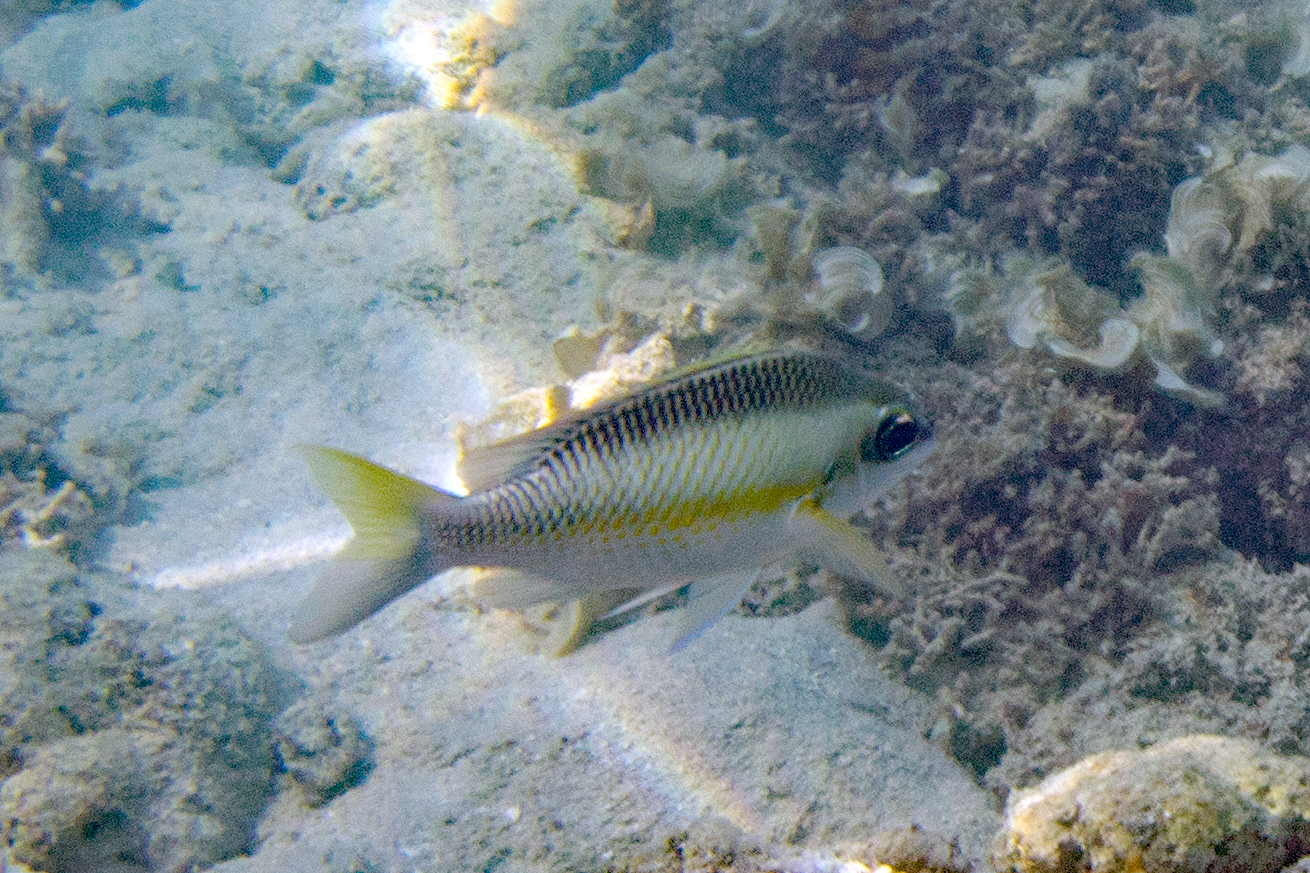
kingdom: Animalia
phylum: Chordata
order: Perciformes
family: Nemipteridae
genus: Scolopsis
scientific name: Scolopsis margaritifera
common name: Pearly monocle bream
